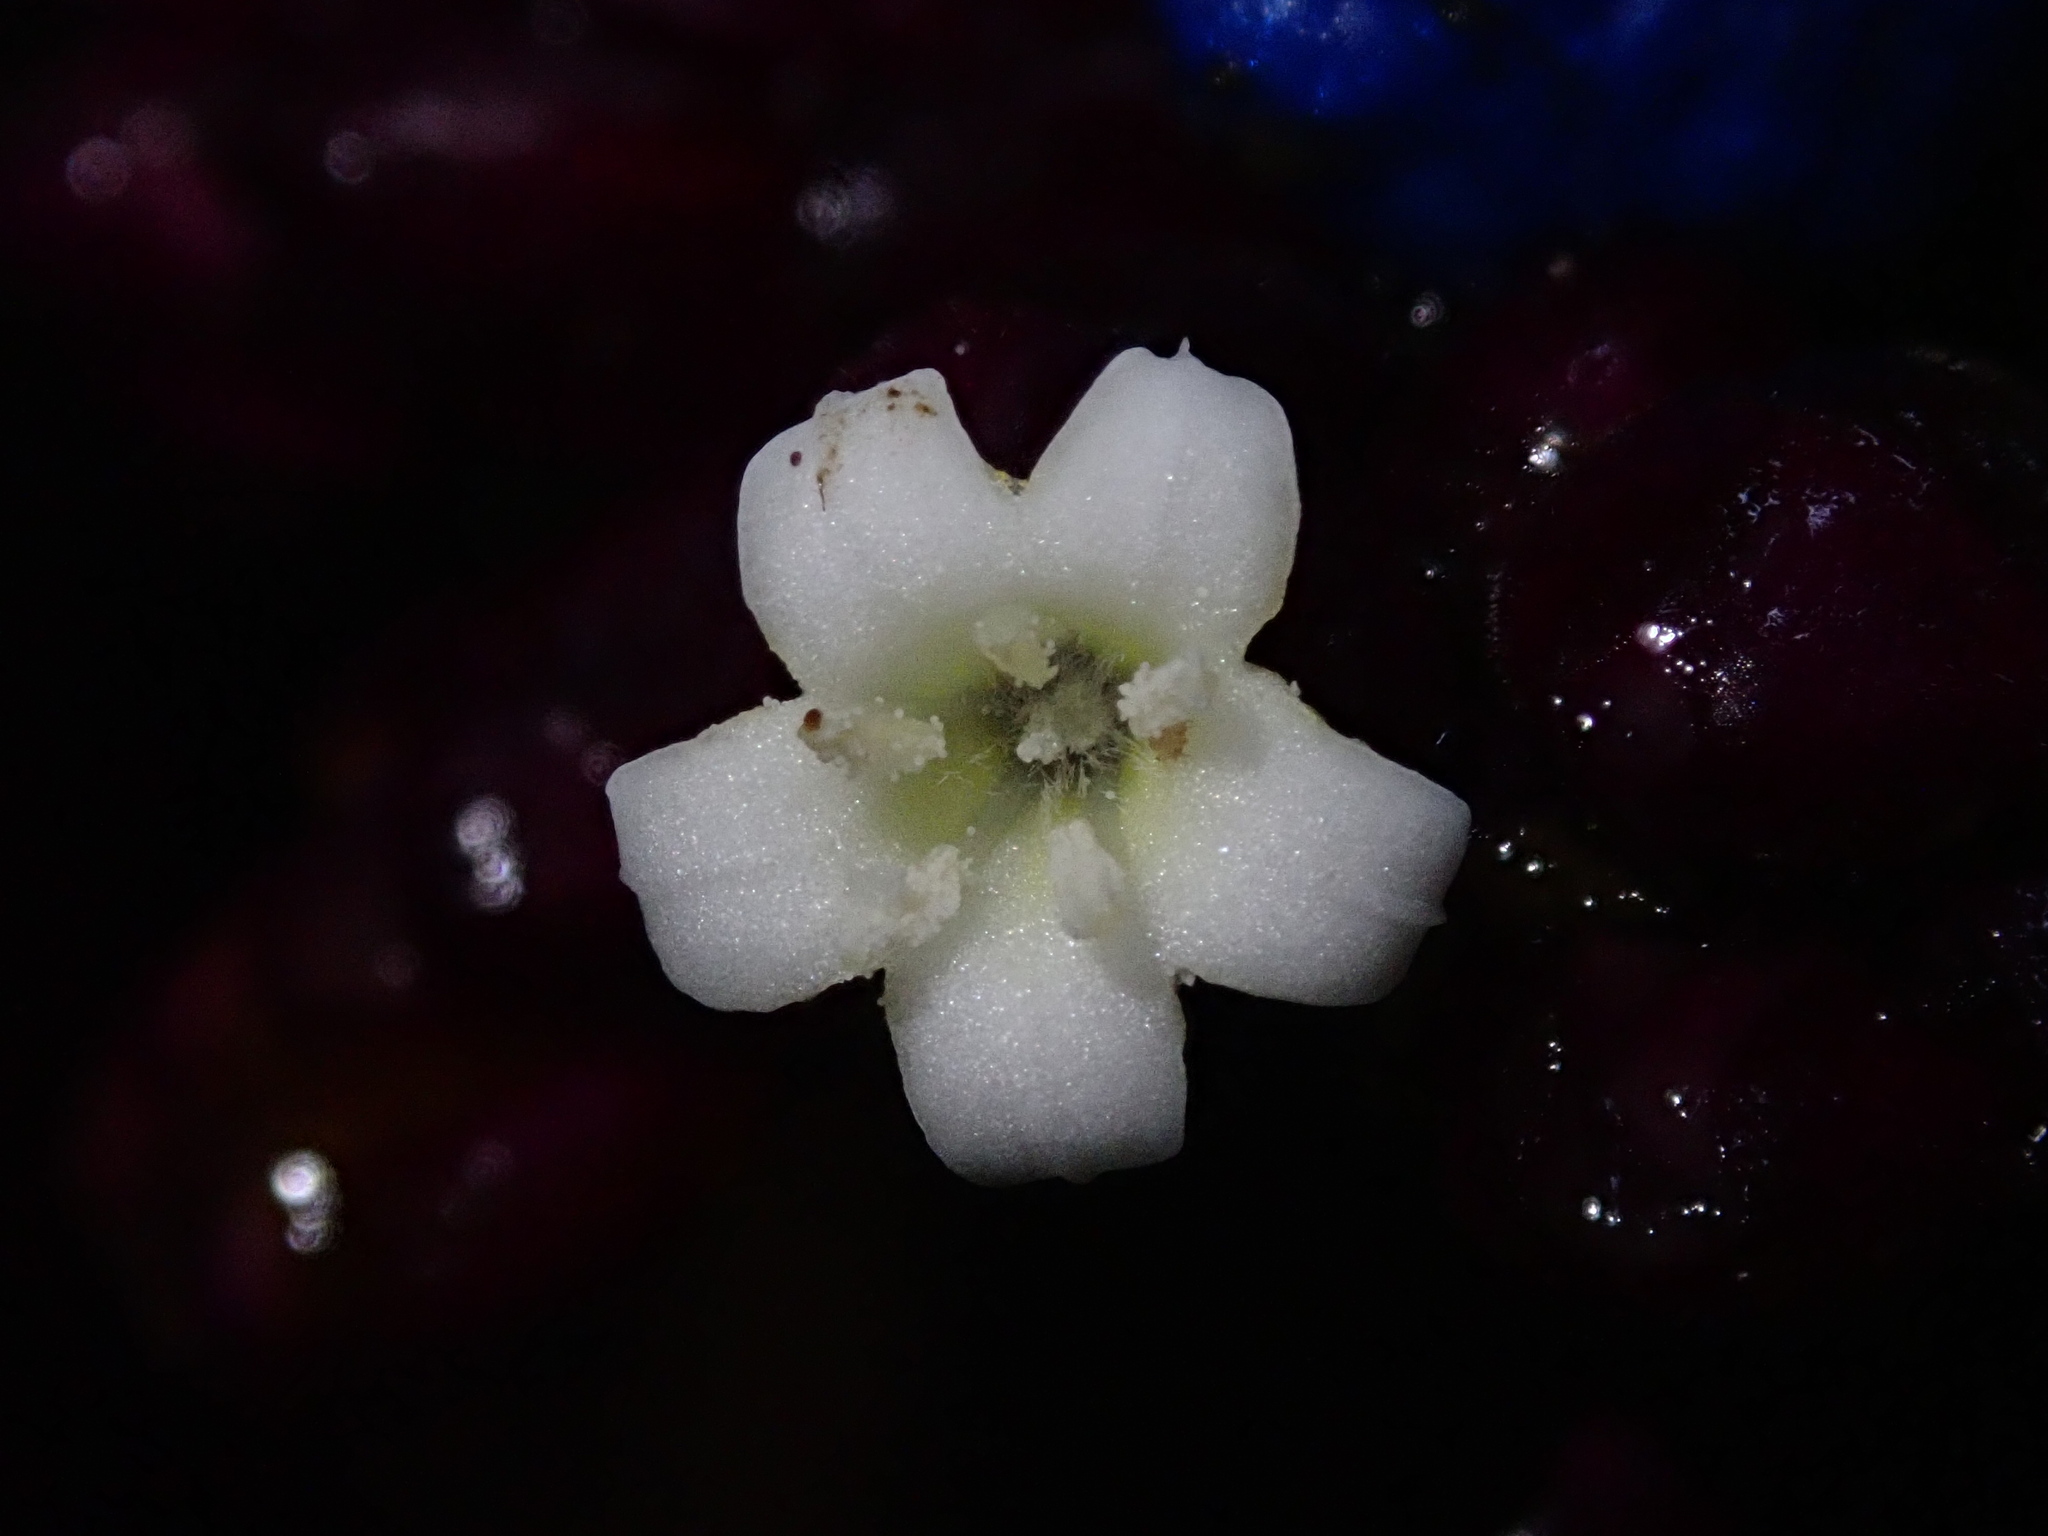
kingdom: Plantae
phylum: Tracheophyta
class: Magnoliopsida
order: Gentianales
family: Rubiaceae
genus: Palicourea
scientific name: Palicourea
